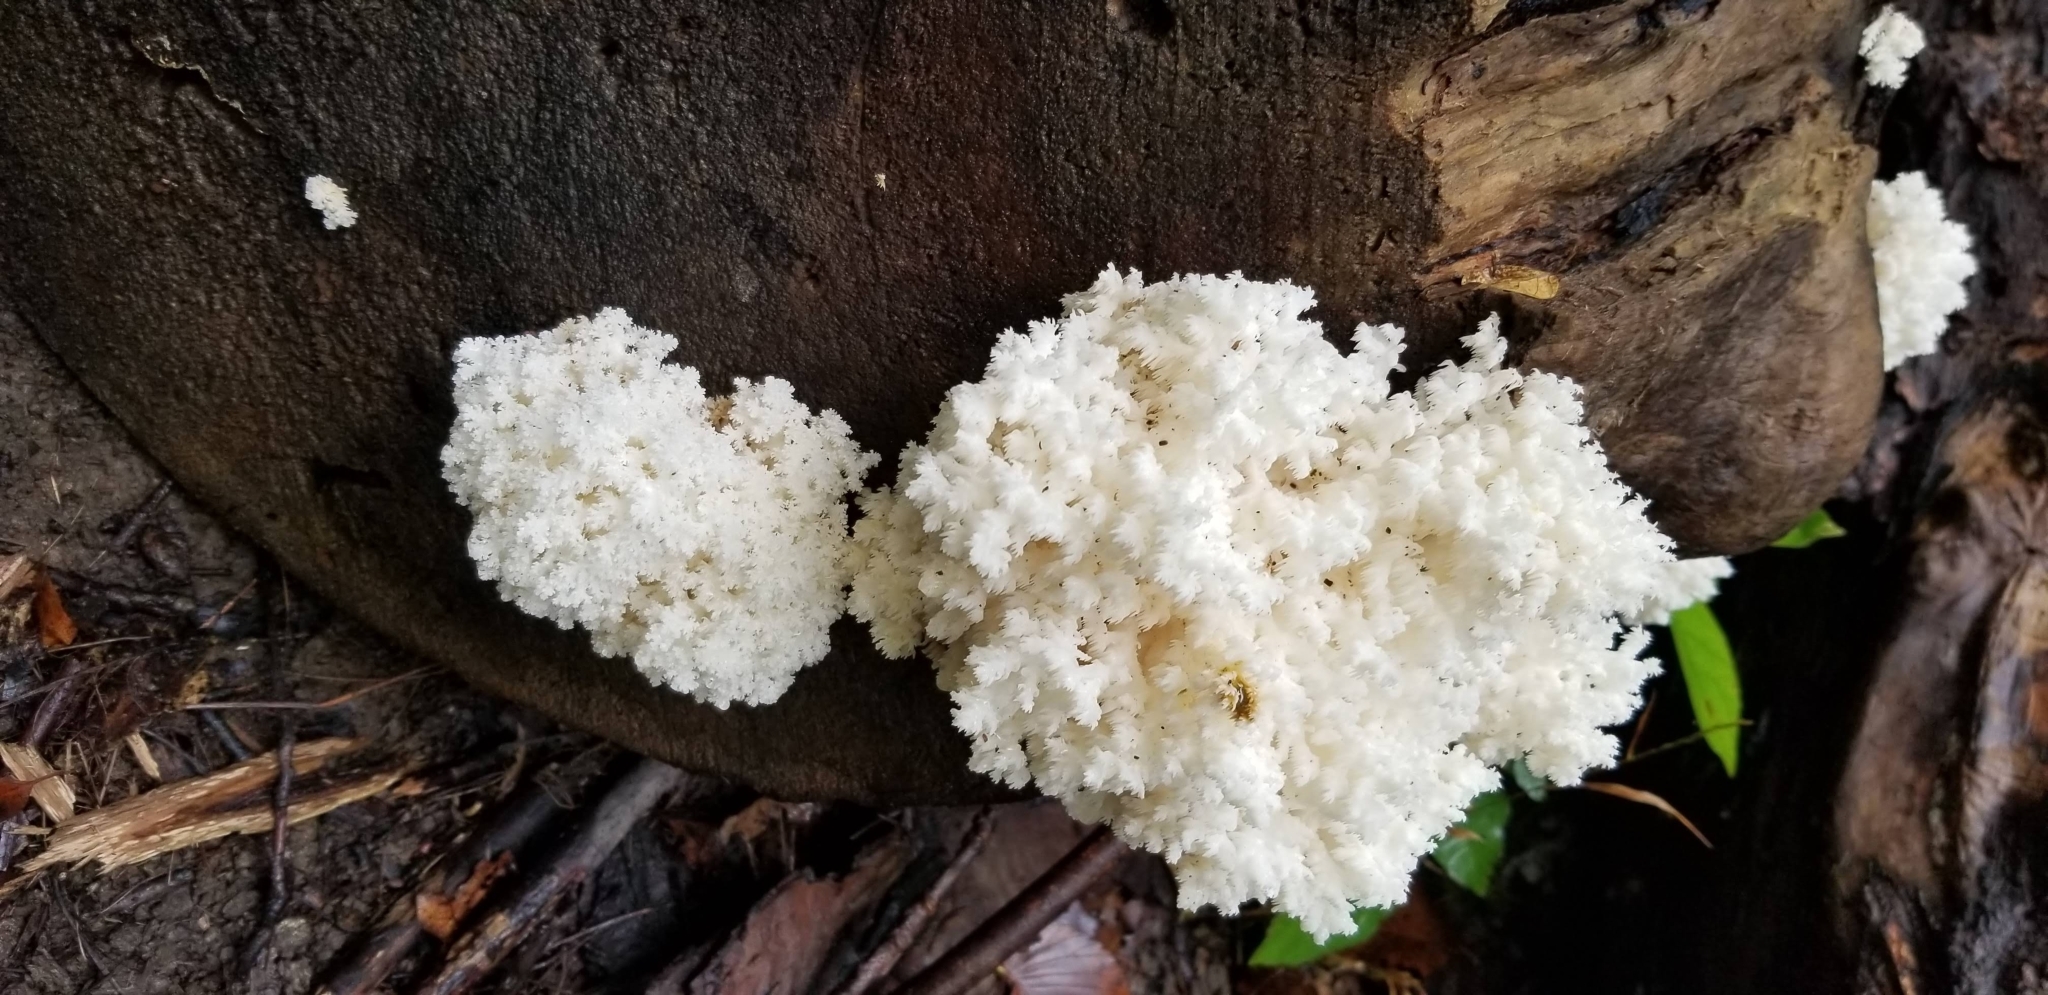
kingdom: Fungi
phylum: Basidiomycota
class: Agaricomycetes
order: Russulales
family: Hericiaceae
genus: Hericium
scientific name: Hericium coralloides
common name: Coral tooth
